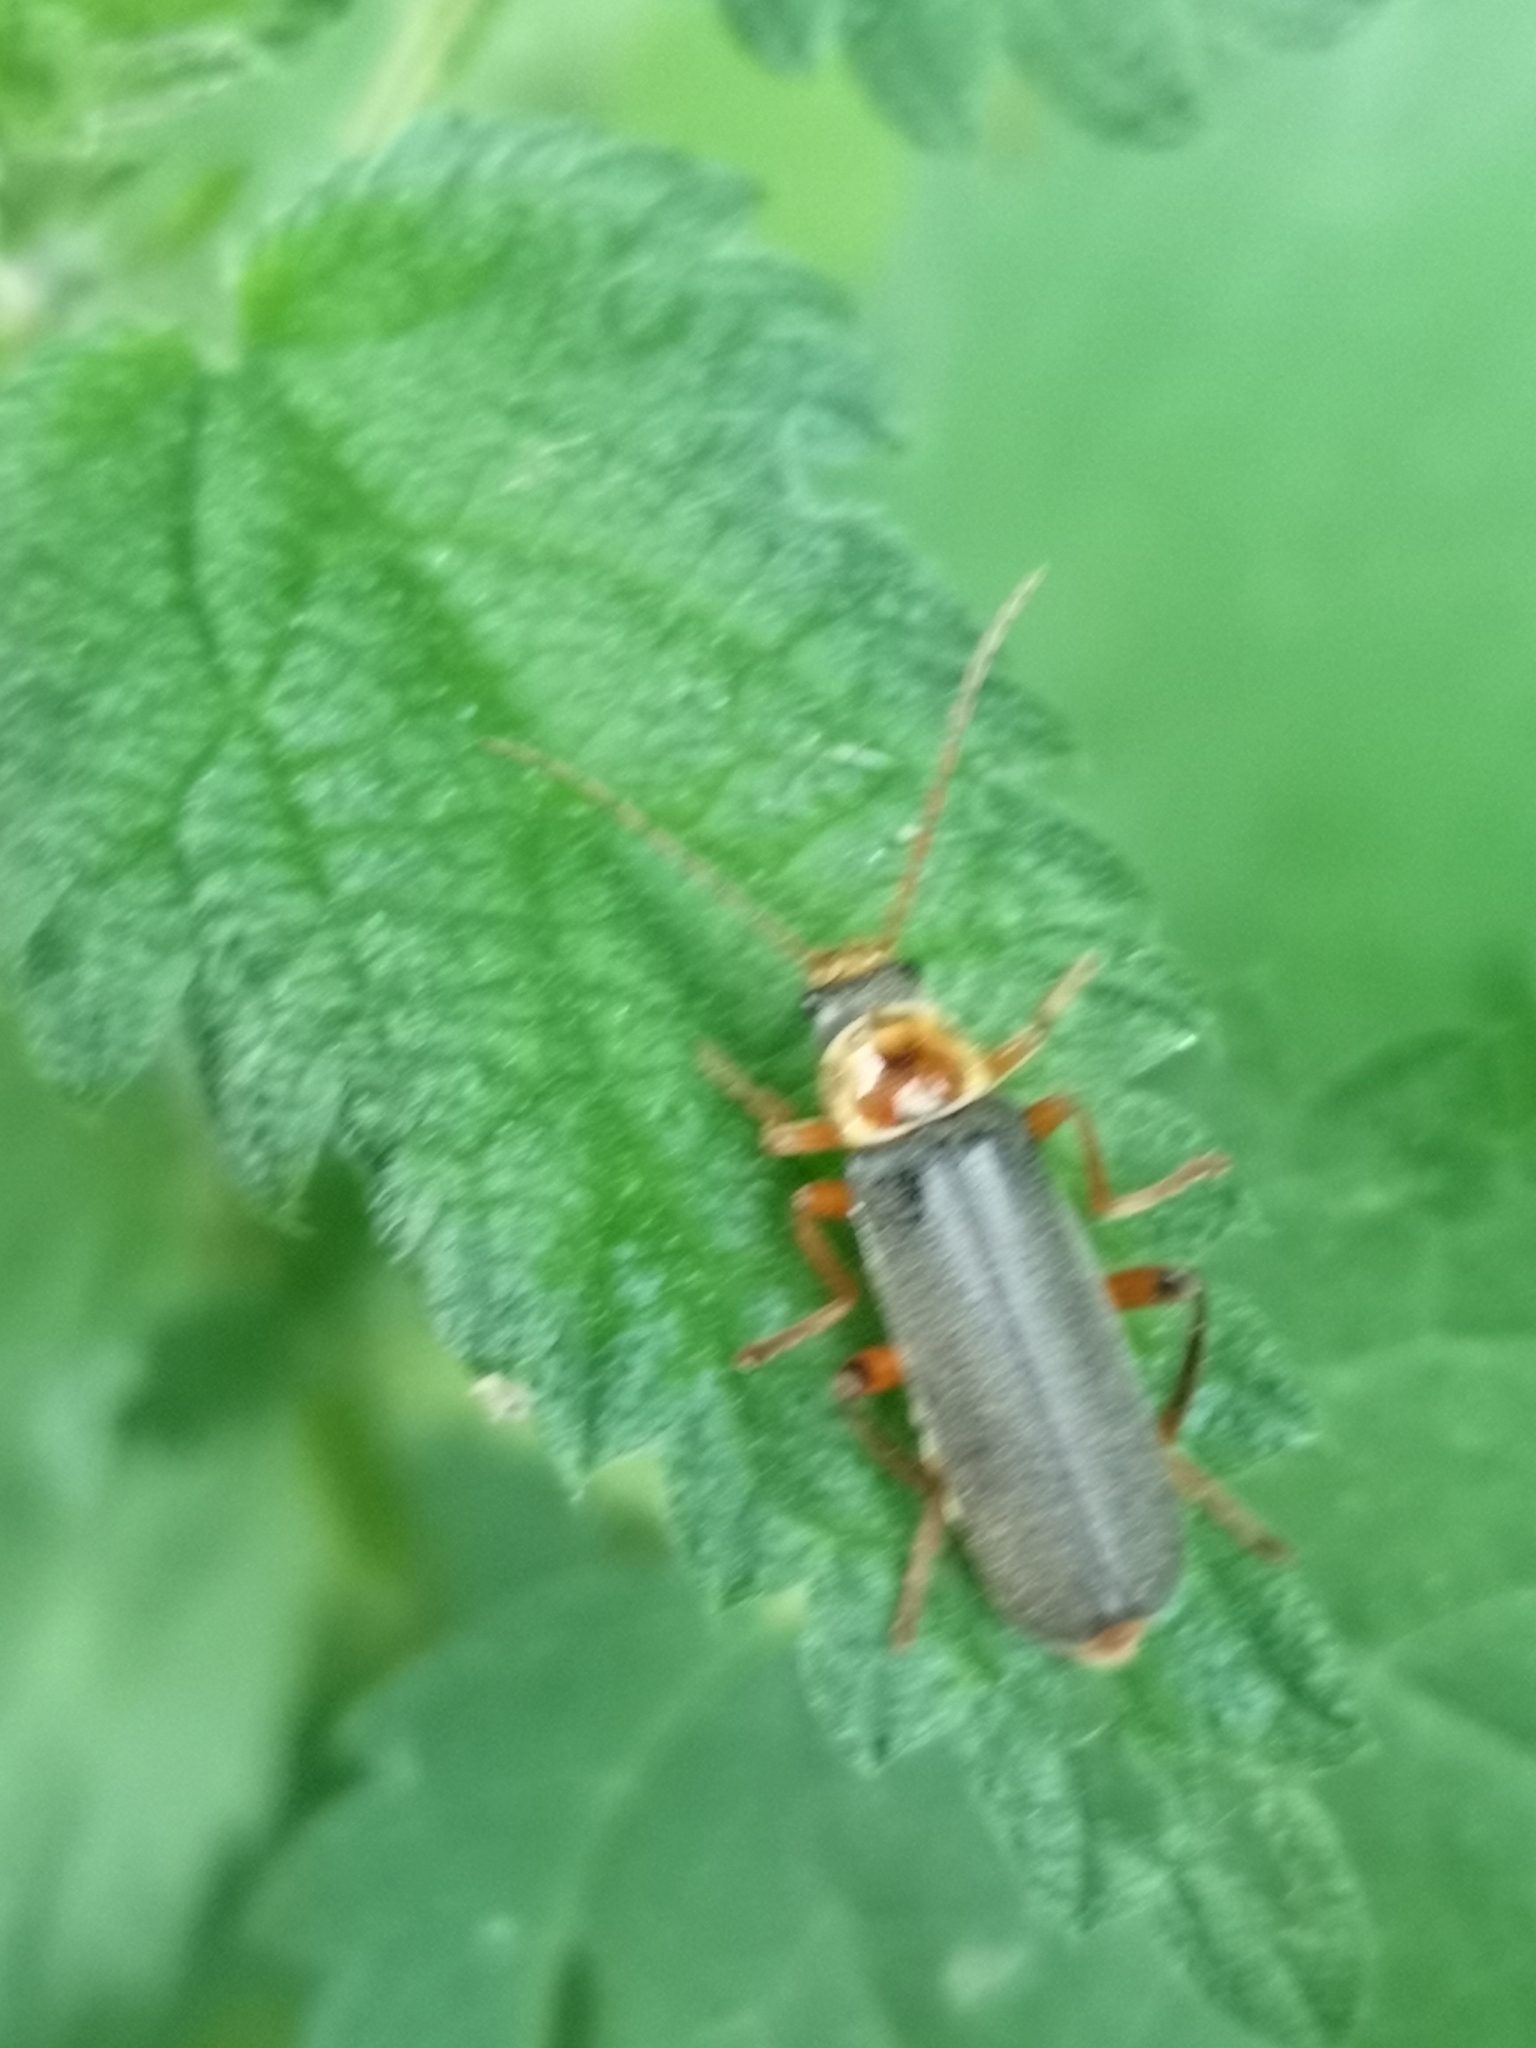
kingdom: Animalia
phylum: Arthropoda
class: Insecta
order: Coleoptera
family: Cantharidae
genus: Cantharis
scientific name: Cantharis nigricans
